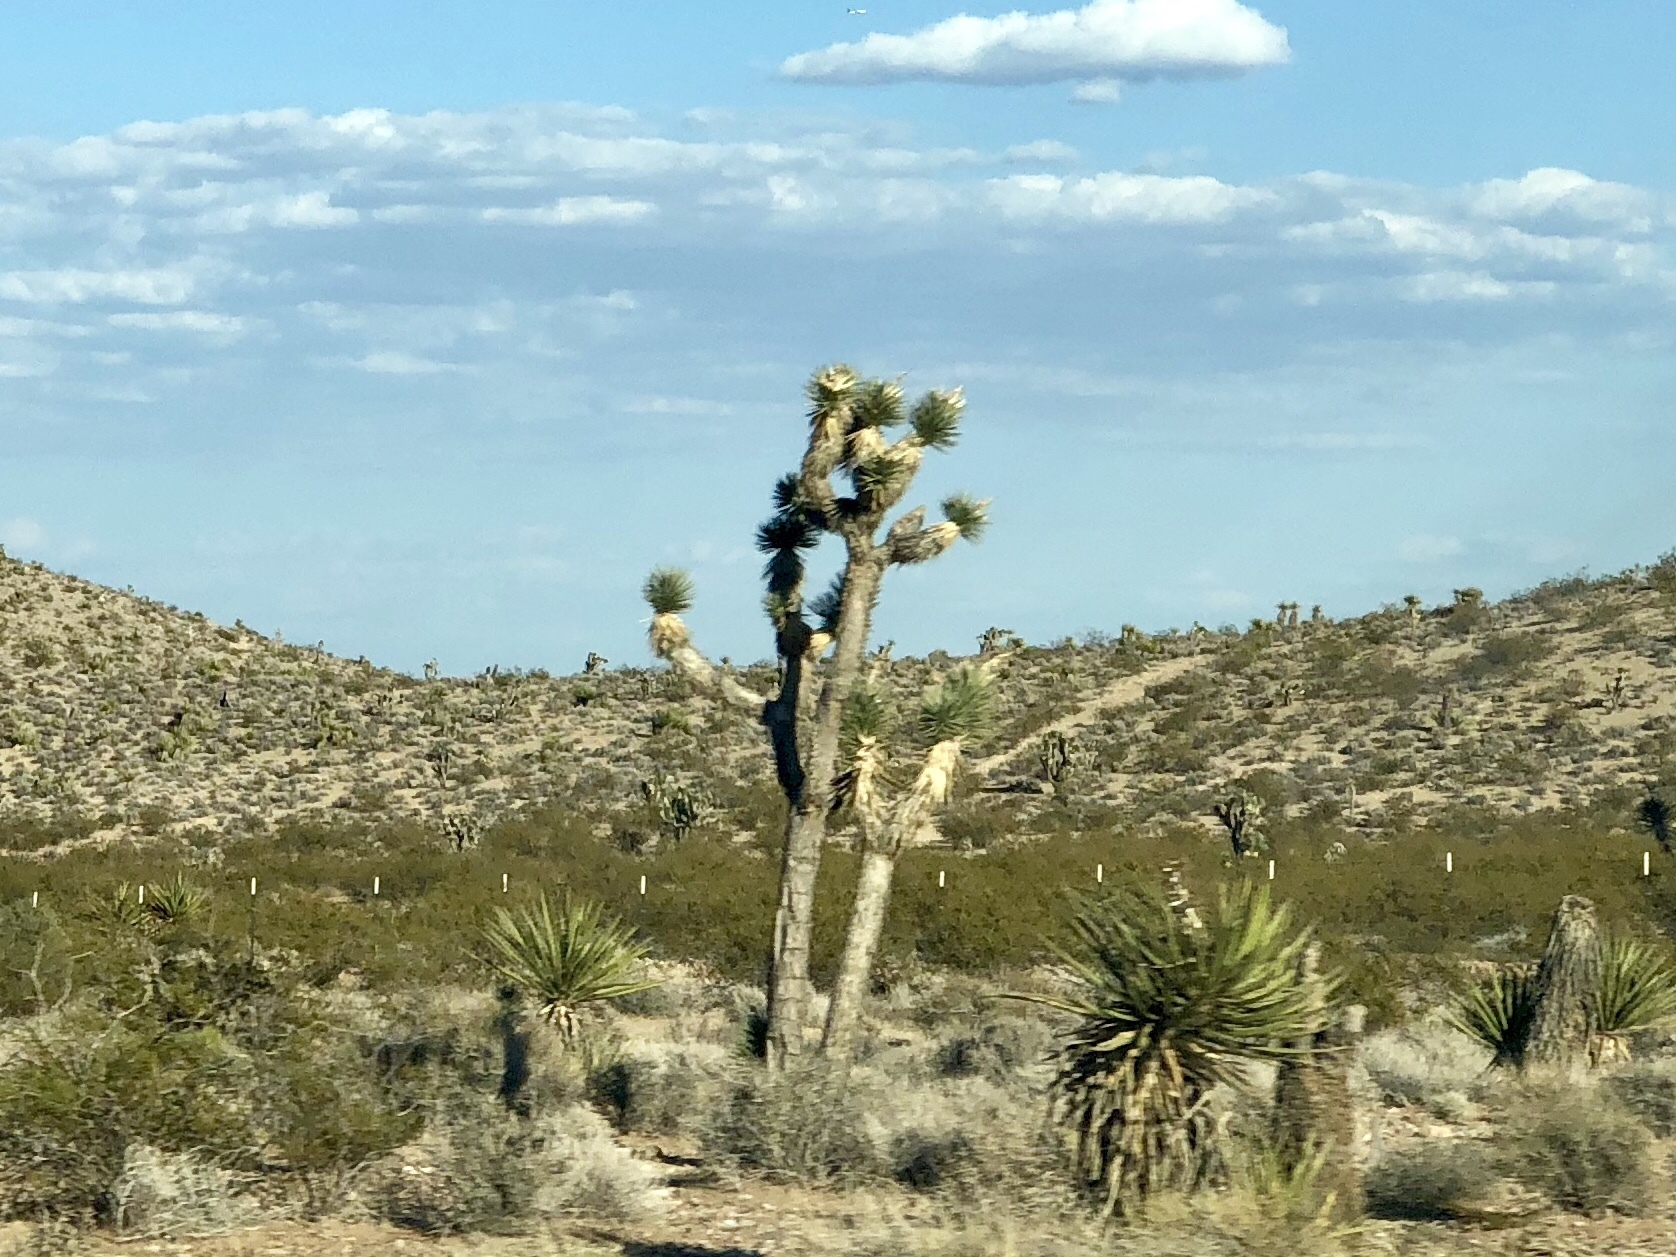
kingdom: Plantae
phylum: Tracheophyta
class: Liliopsida
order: Asparagales
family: Asparagaceae
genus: Yucca
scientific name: Yucca brevifolia
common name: Joshua tree
